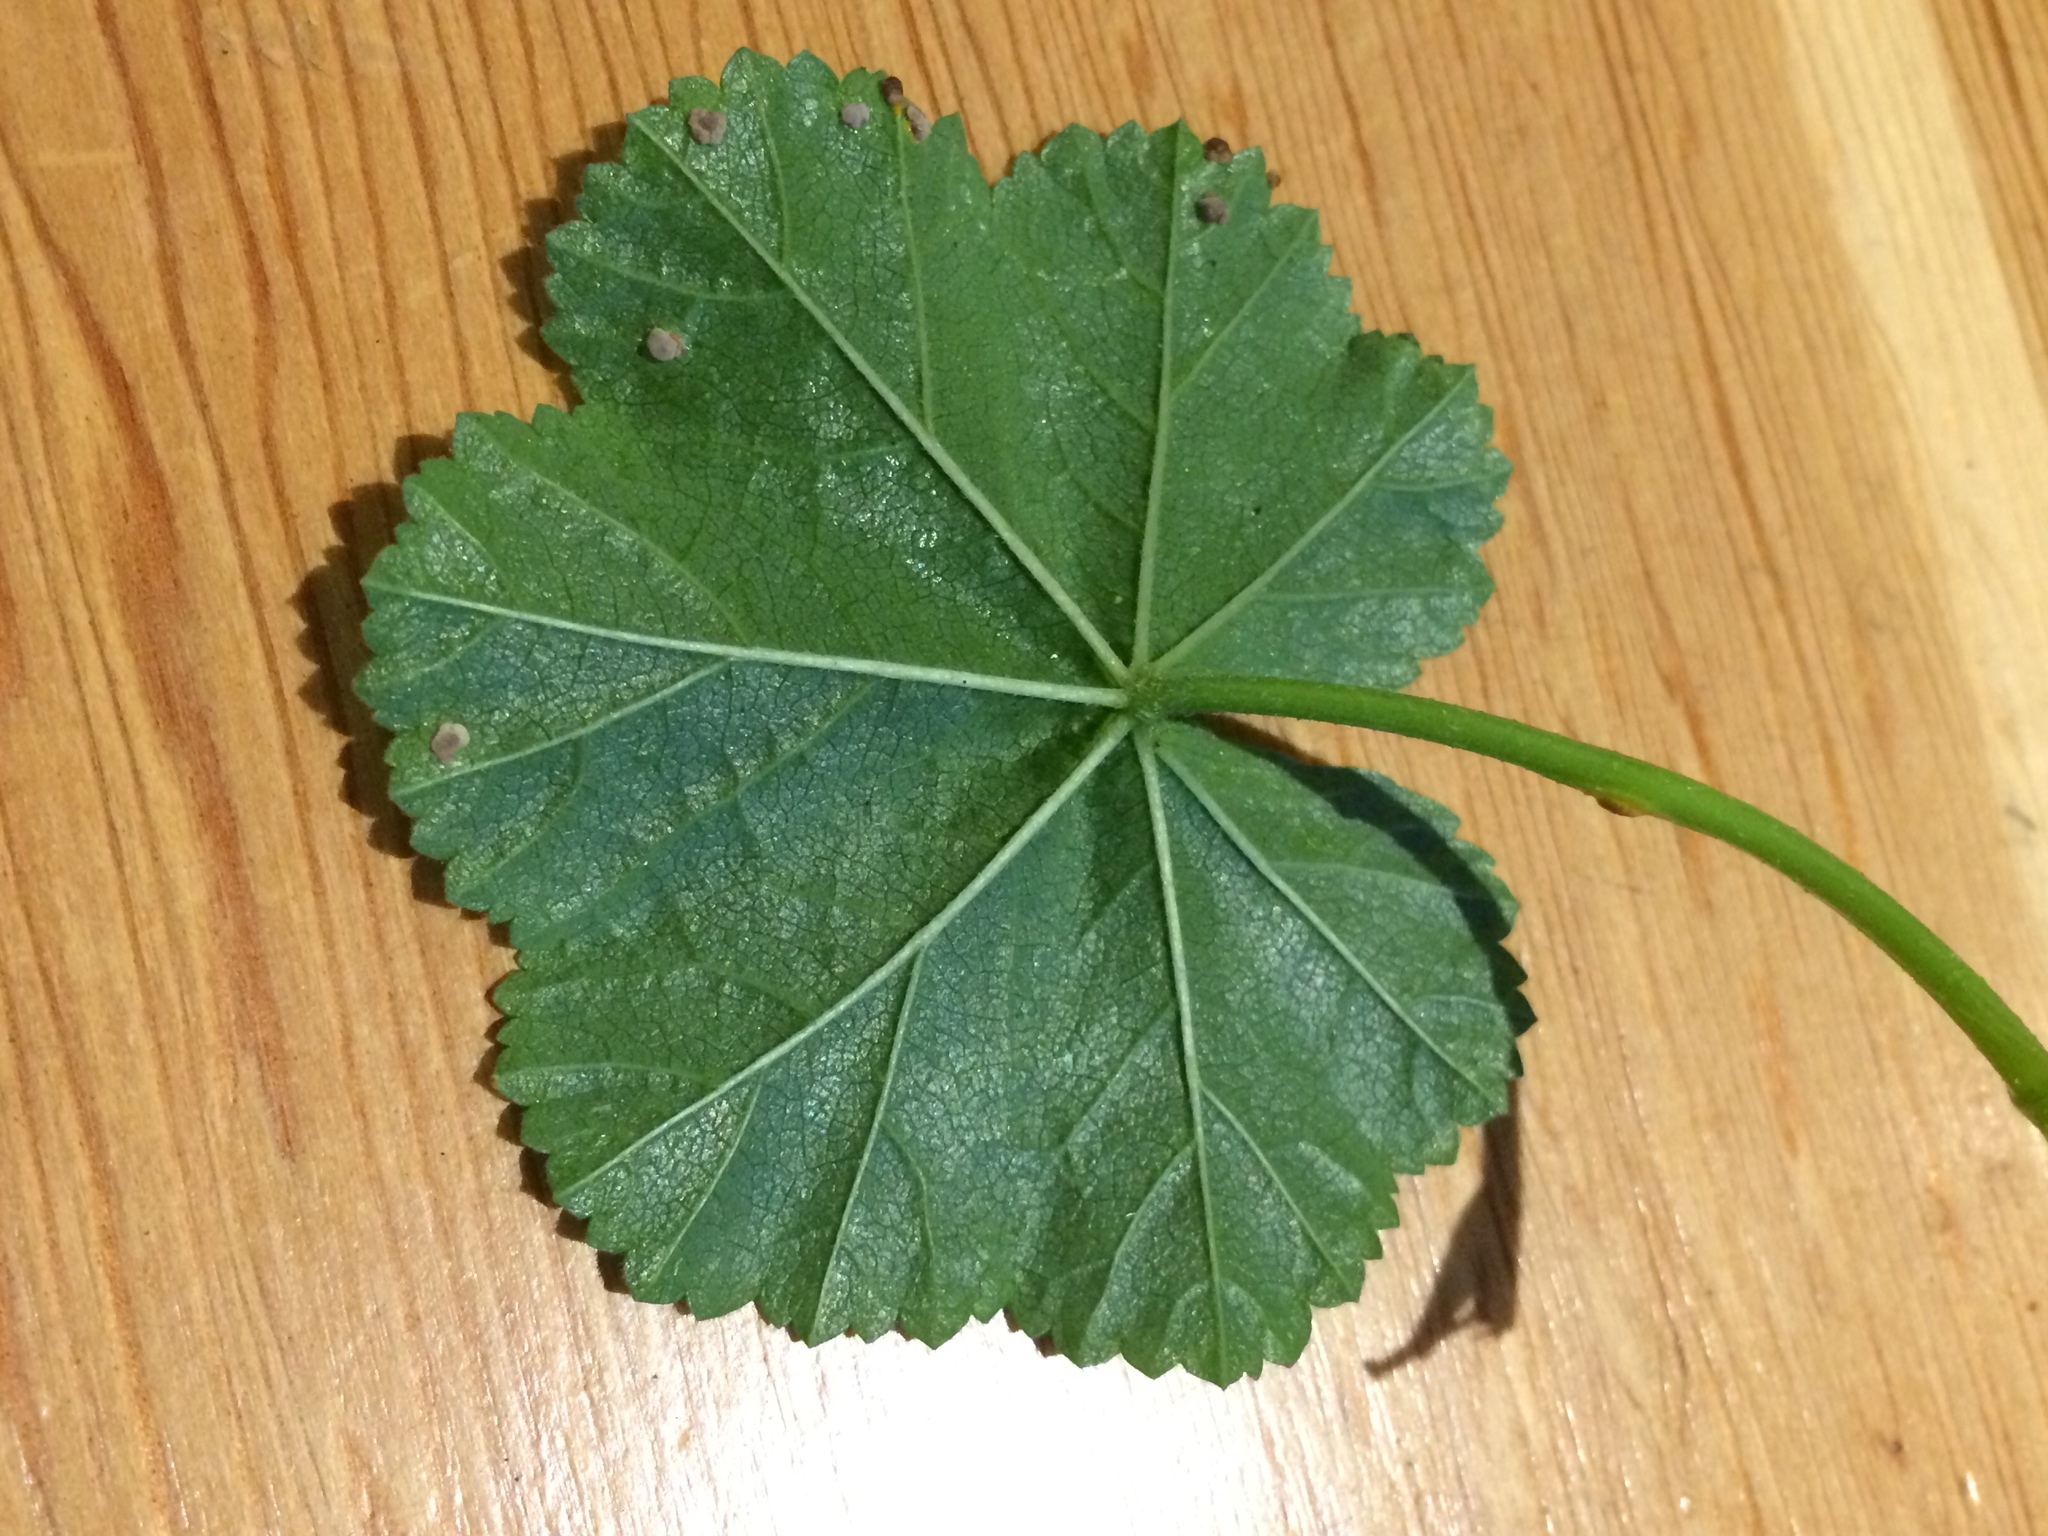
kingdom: Plantae
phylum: Tracheophyta
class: Magnoliopsida
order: Malvales
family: Malvaceae
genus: Malva
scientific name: Malva neglecta
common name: Common mallow
